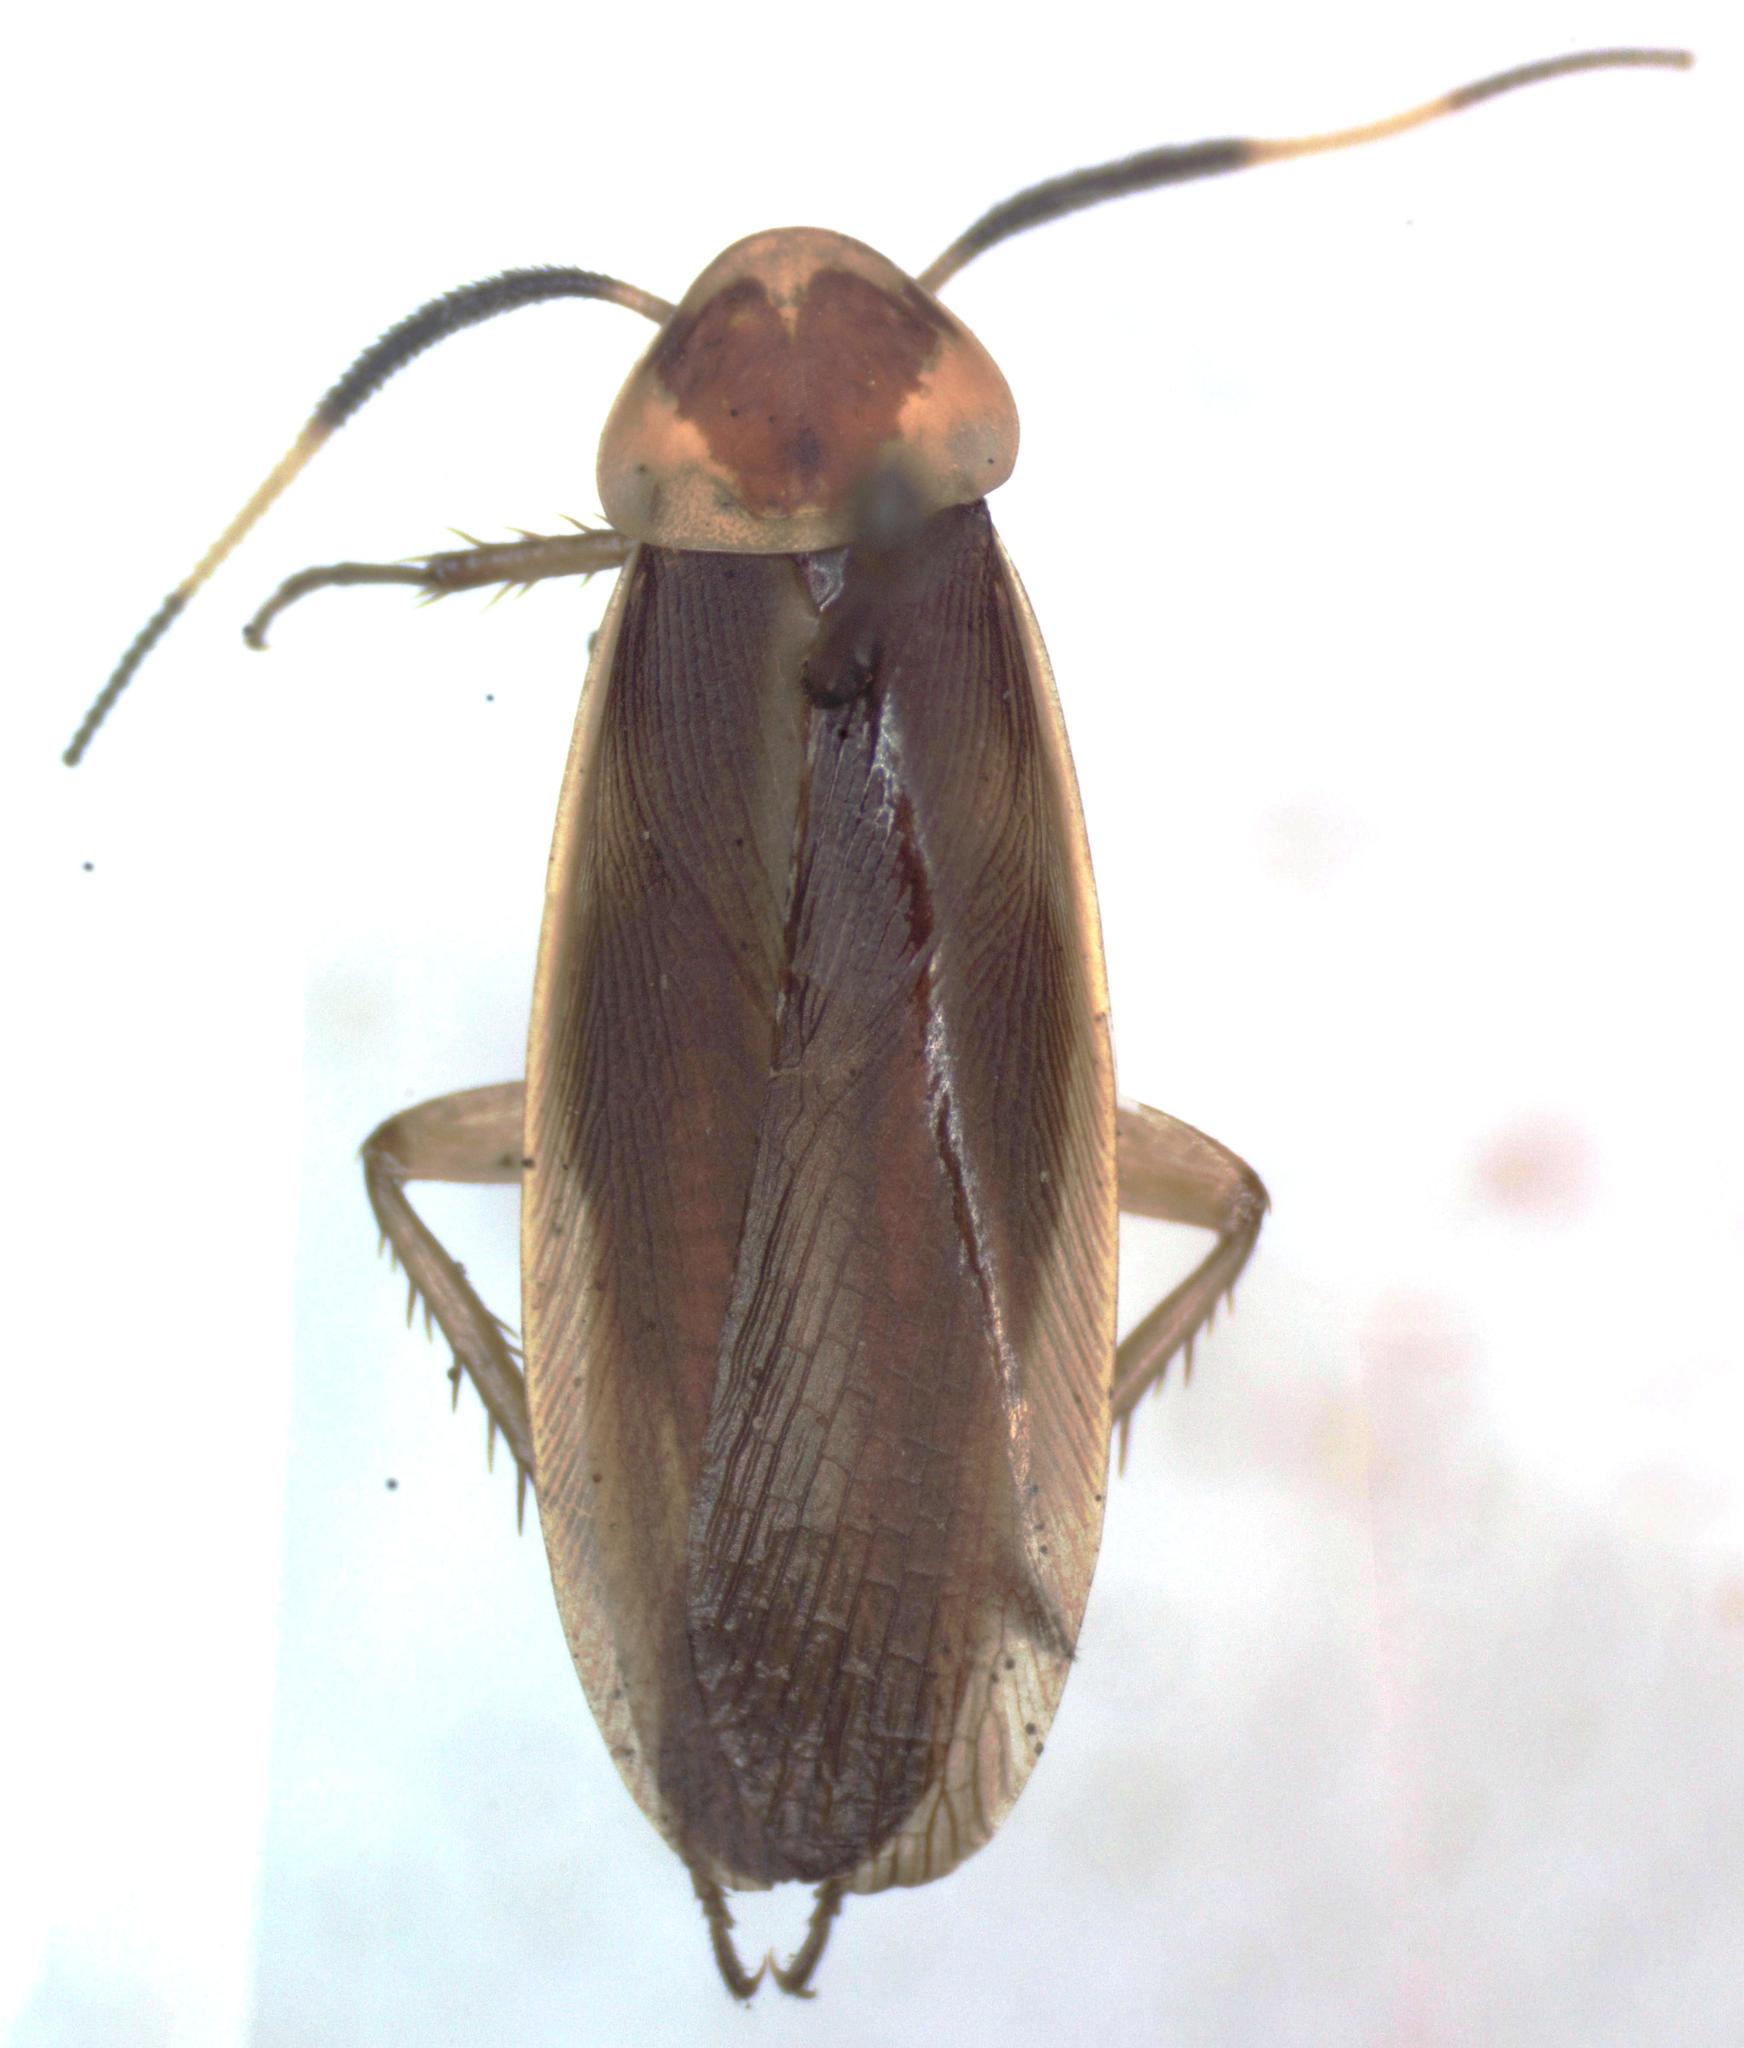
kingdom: Animalia
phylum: Arthropoda
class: Insecta
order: Blattodea
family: Ectobiidae
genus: Caloblatta
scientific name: Caloblatta tricolor
